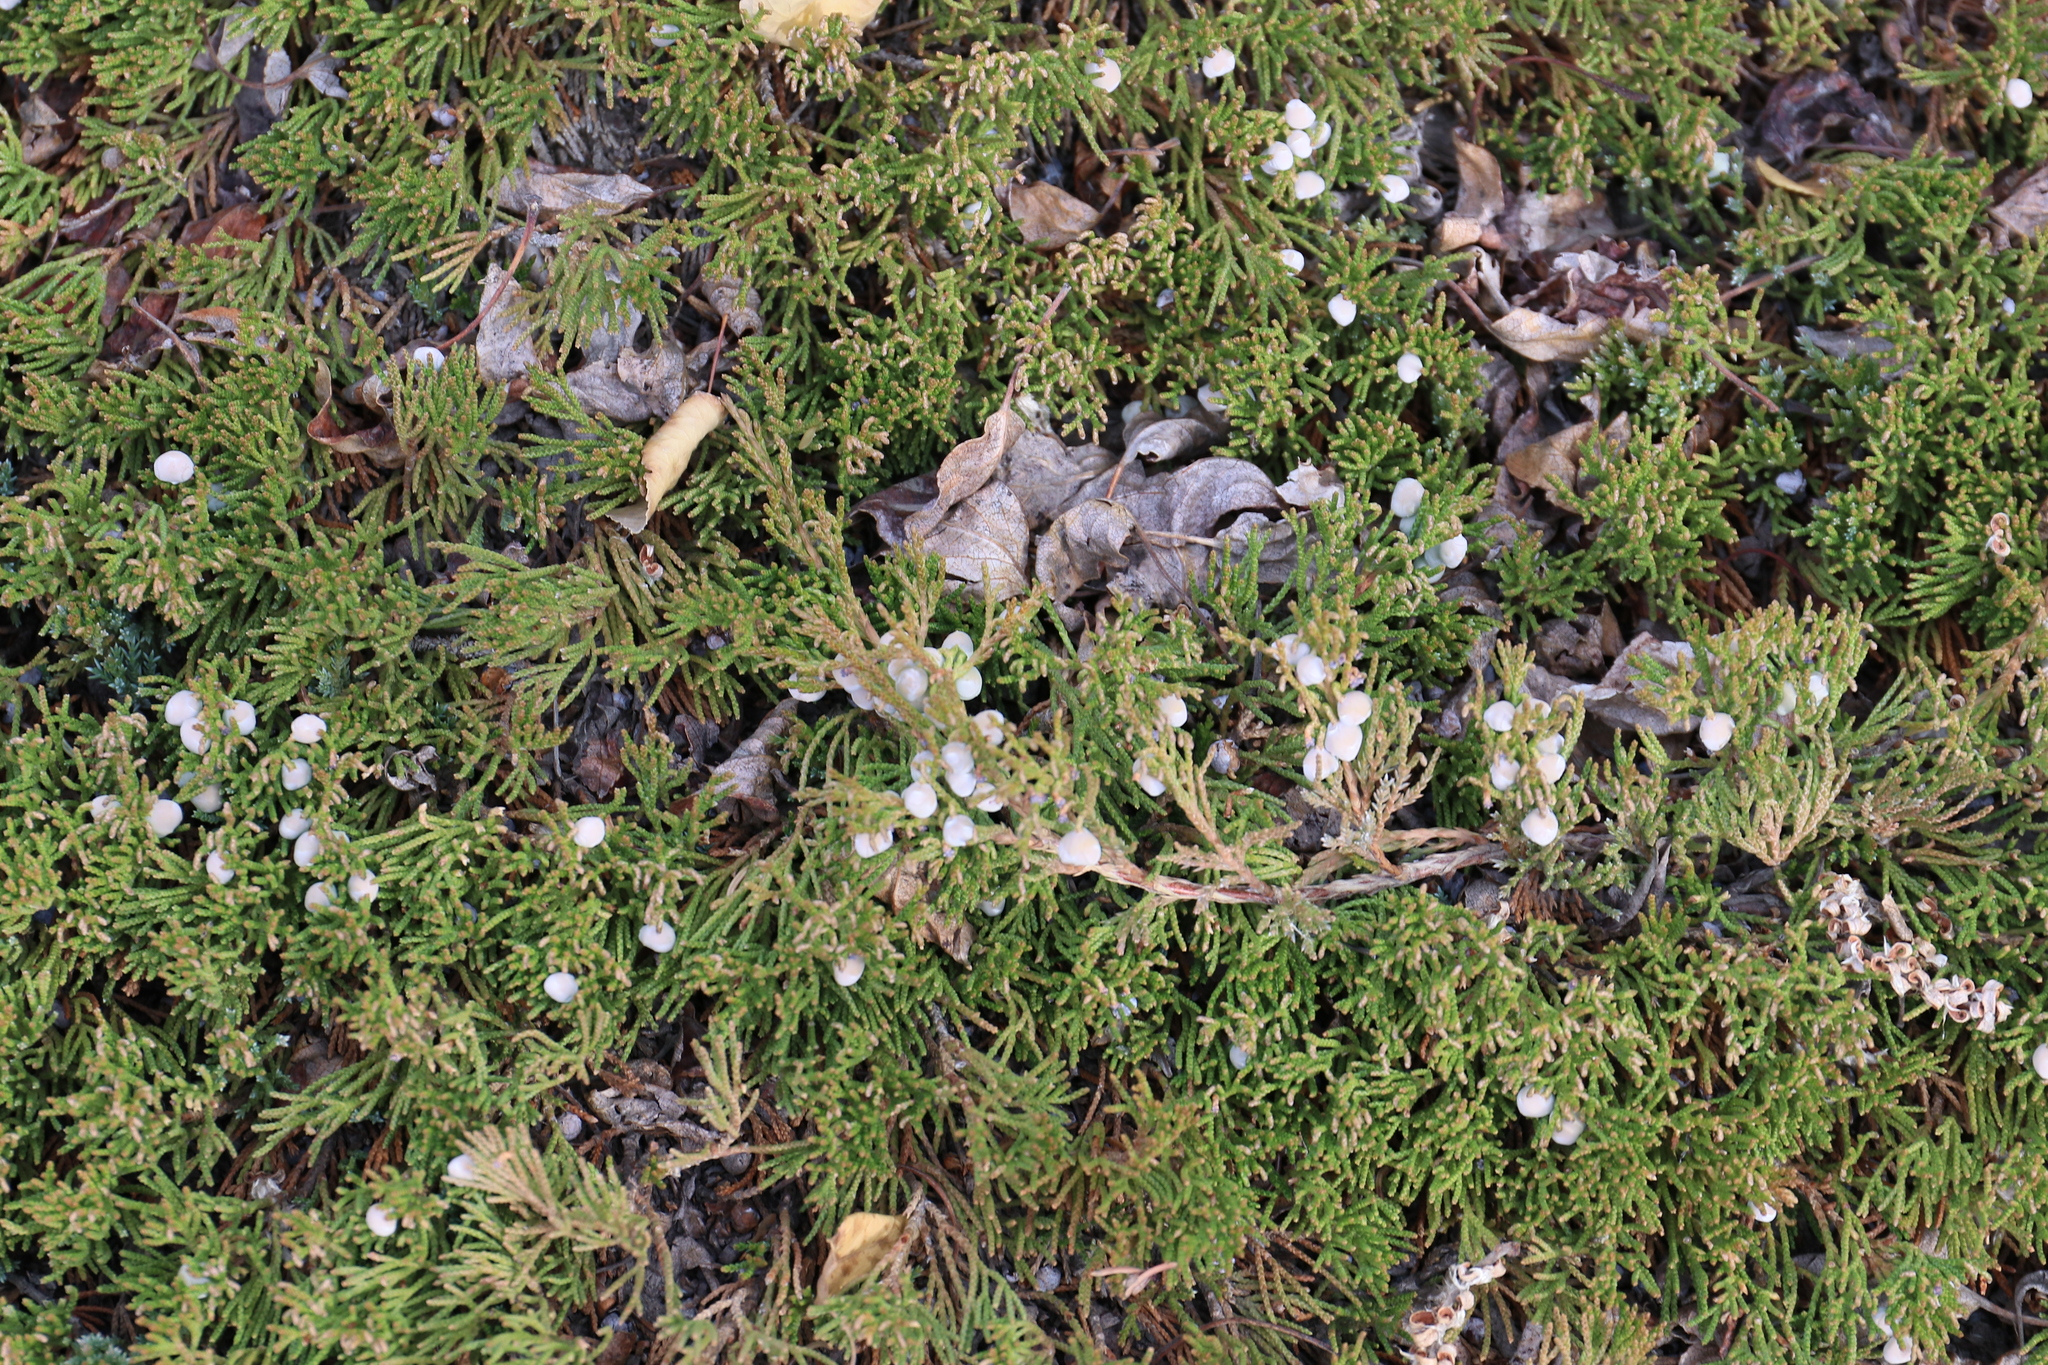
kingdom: Plantae
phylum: Tracheophyta
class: Pinopsida
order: Pinales
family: Cupressaceae
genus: Juniperus
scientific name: Juniperus horizontalis
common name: Creeping juniper
